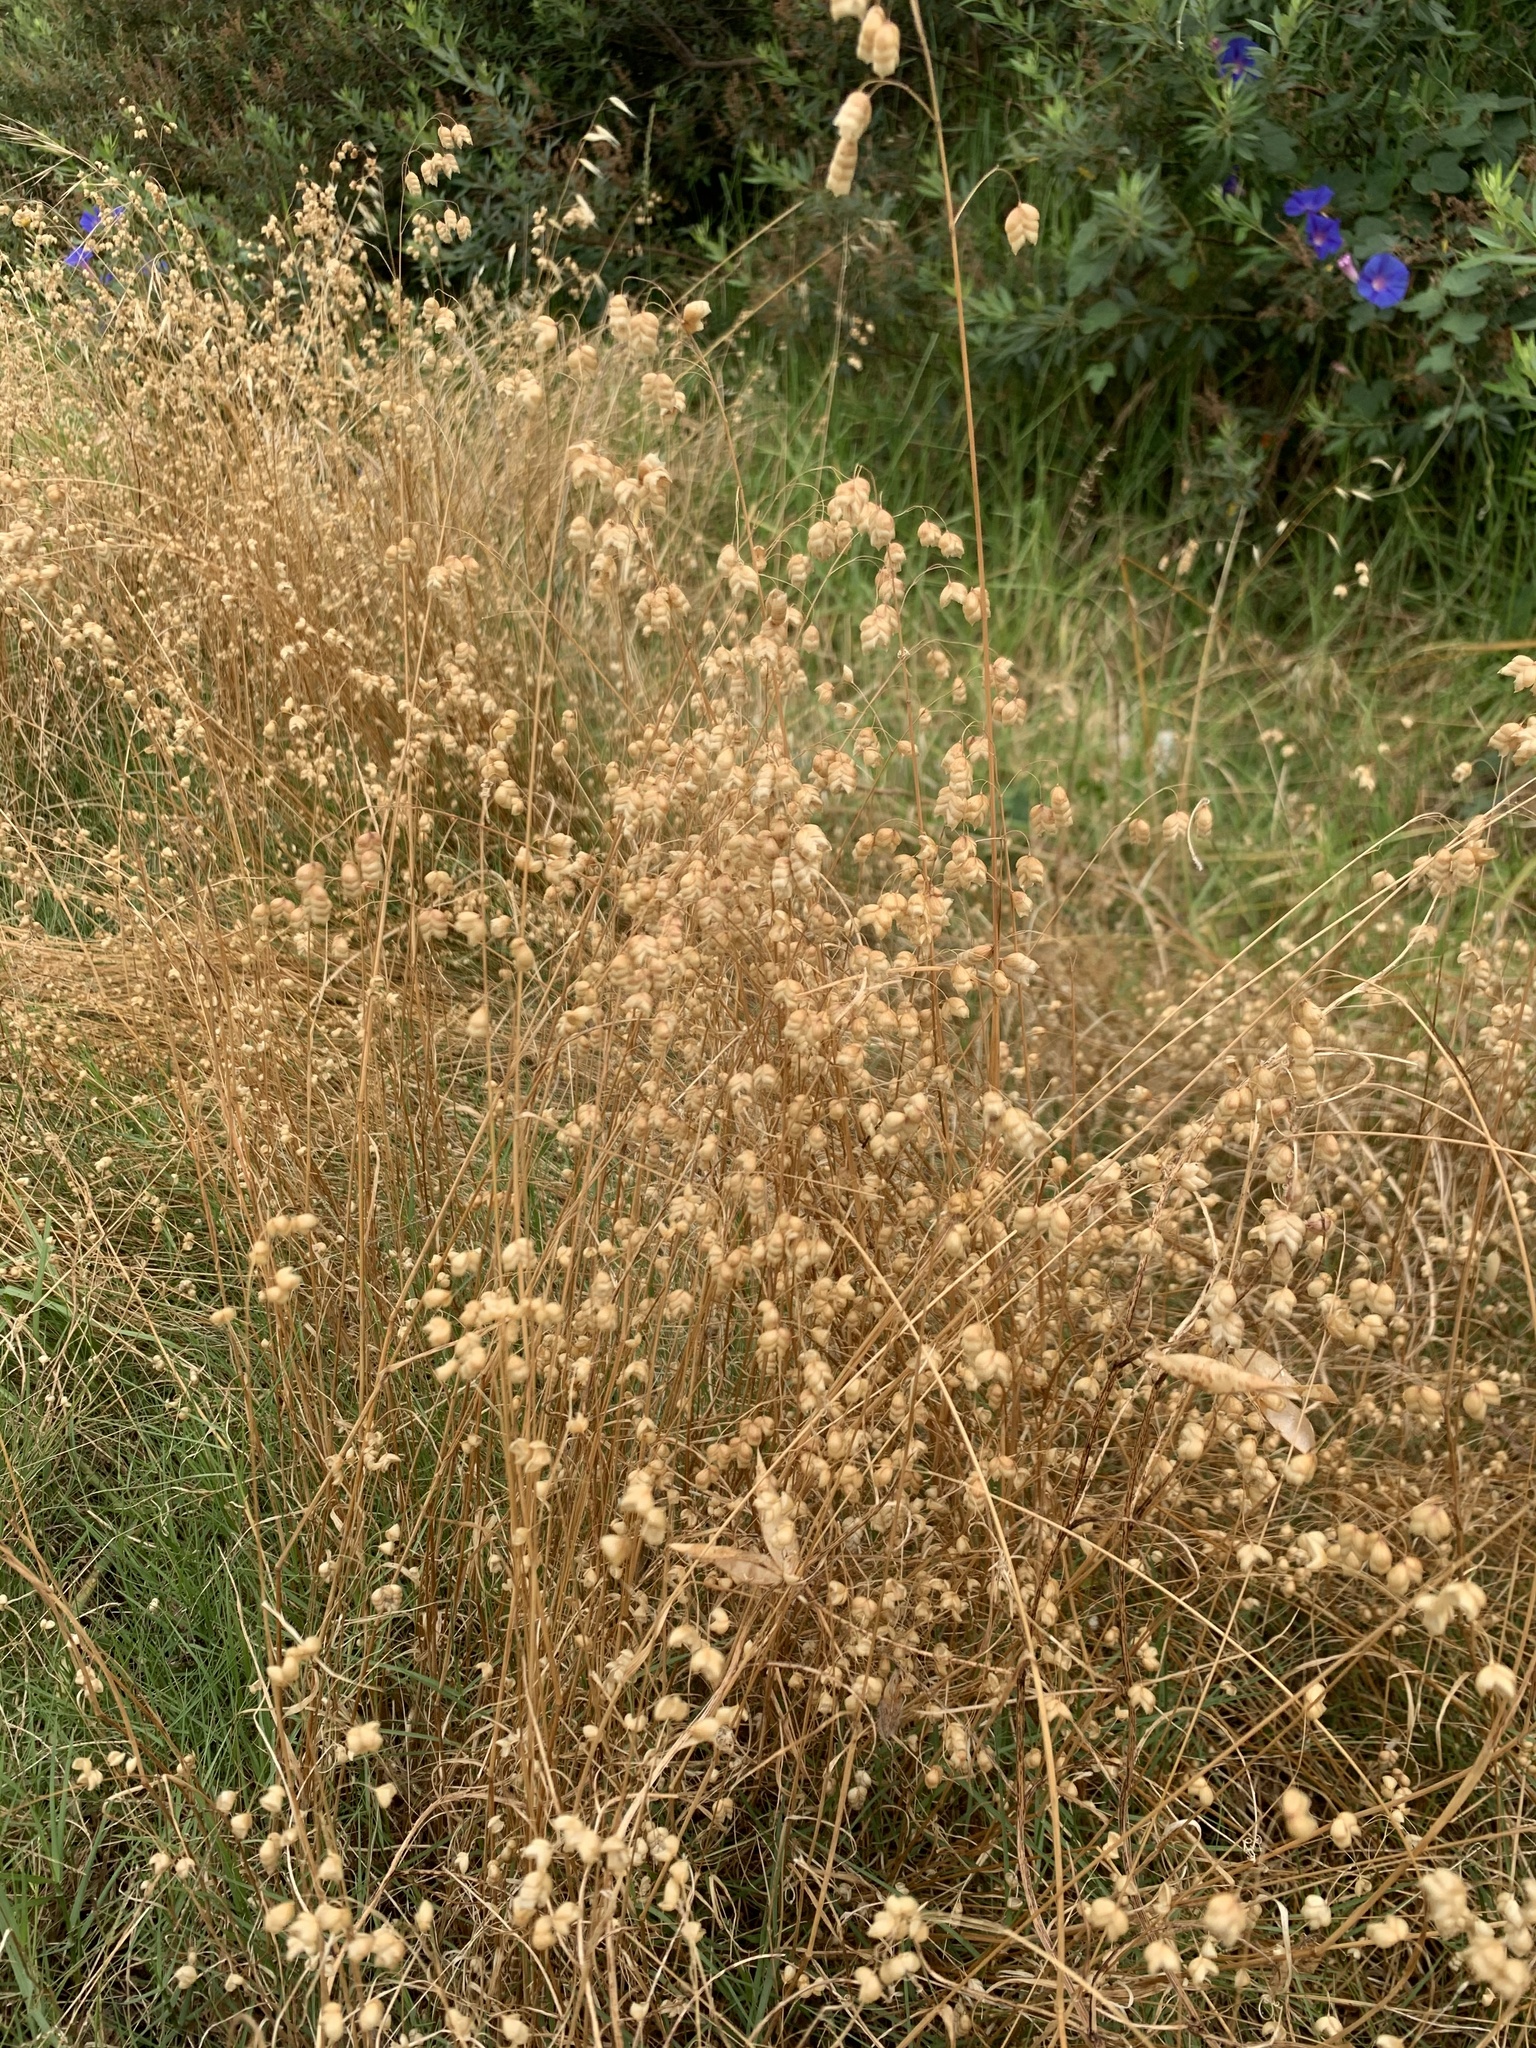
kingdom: Plantae
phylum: Tracheophyta
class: Liliopsida
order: Poales
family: Poaceae
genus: Briza
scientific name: Briza maxima
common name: Big quakinggrass
